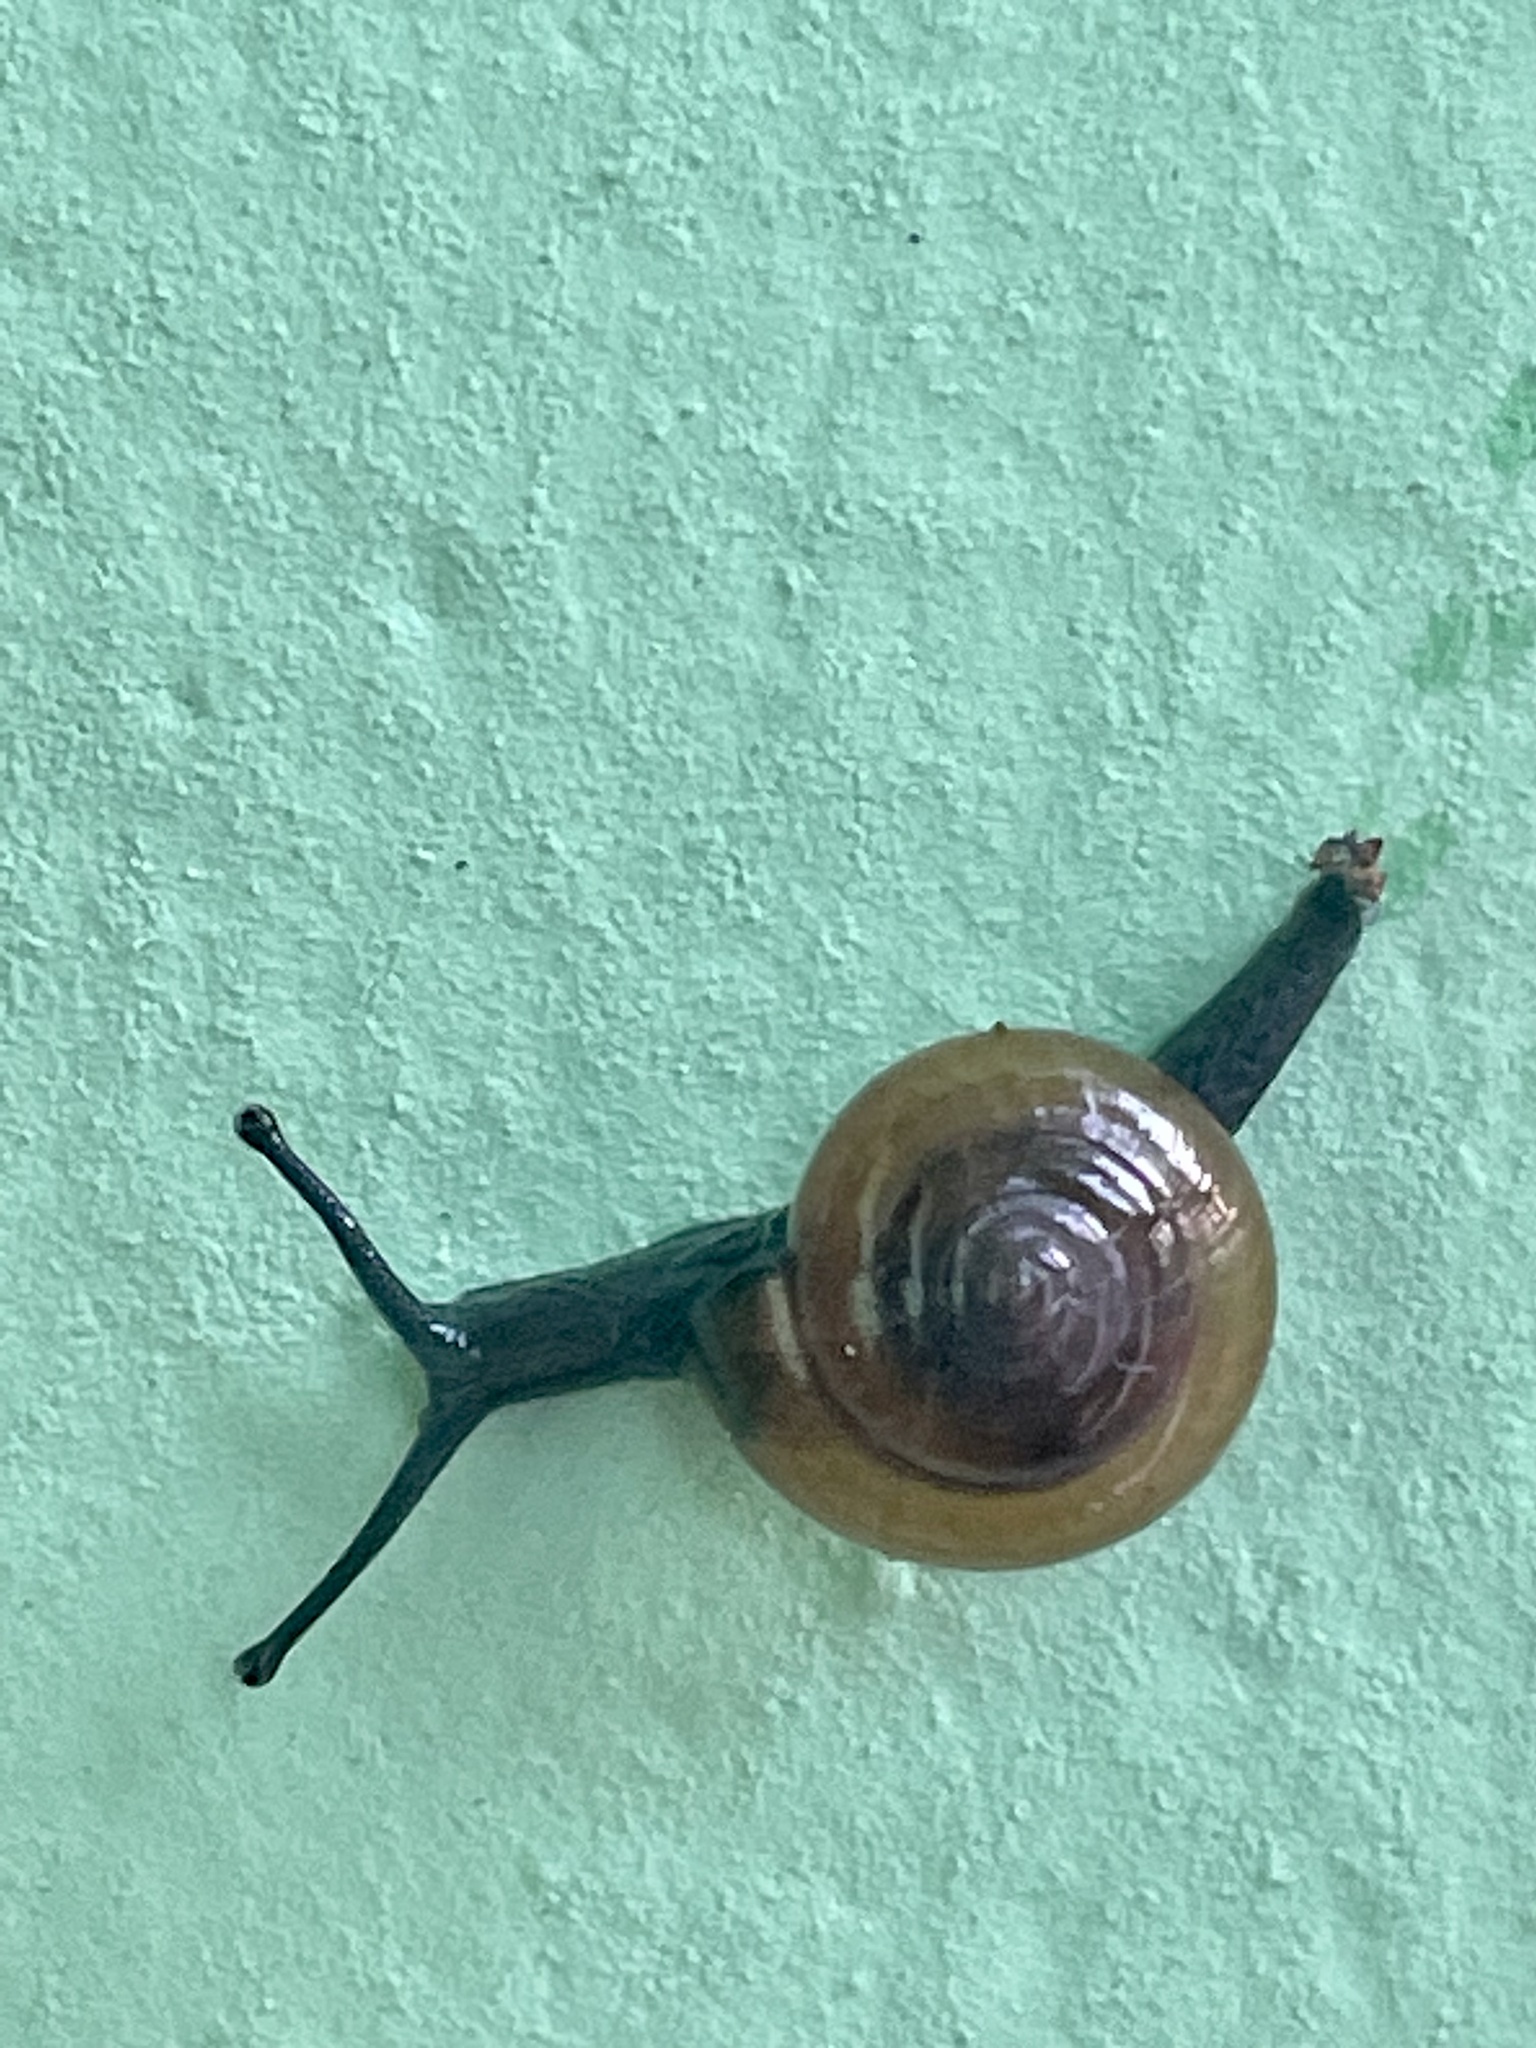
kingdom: Animalia
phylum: Mollusca
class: Gastropoda
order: Stylommatophora
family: Ariophantidae
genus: Macrochlamys
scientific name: Macrochlamys indica
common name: Horntail snail
